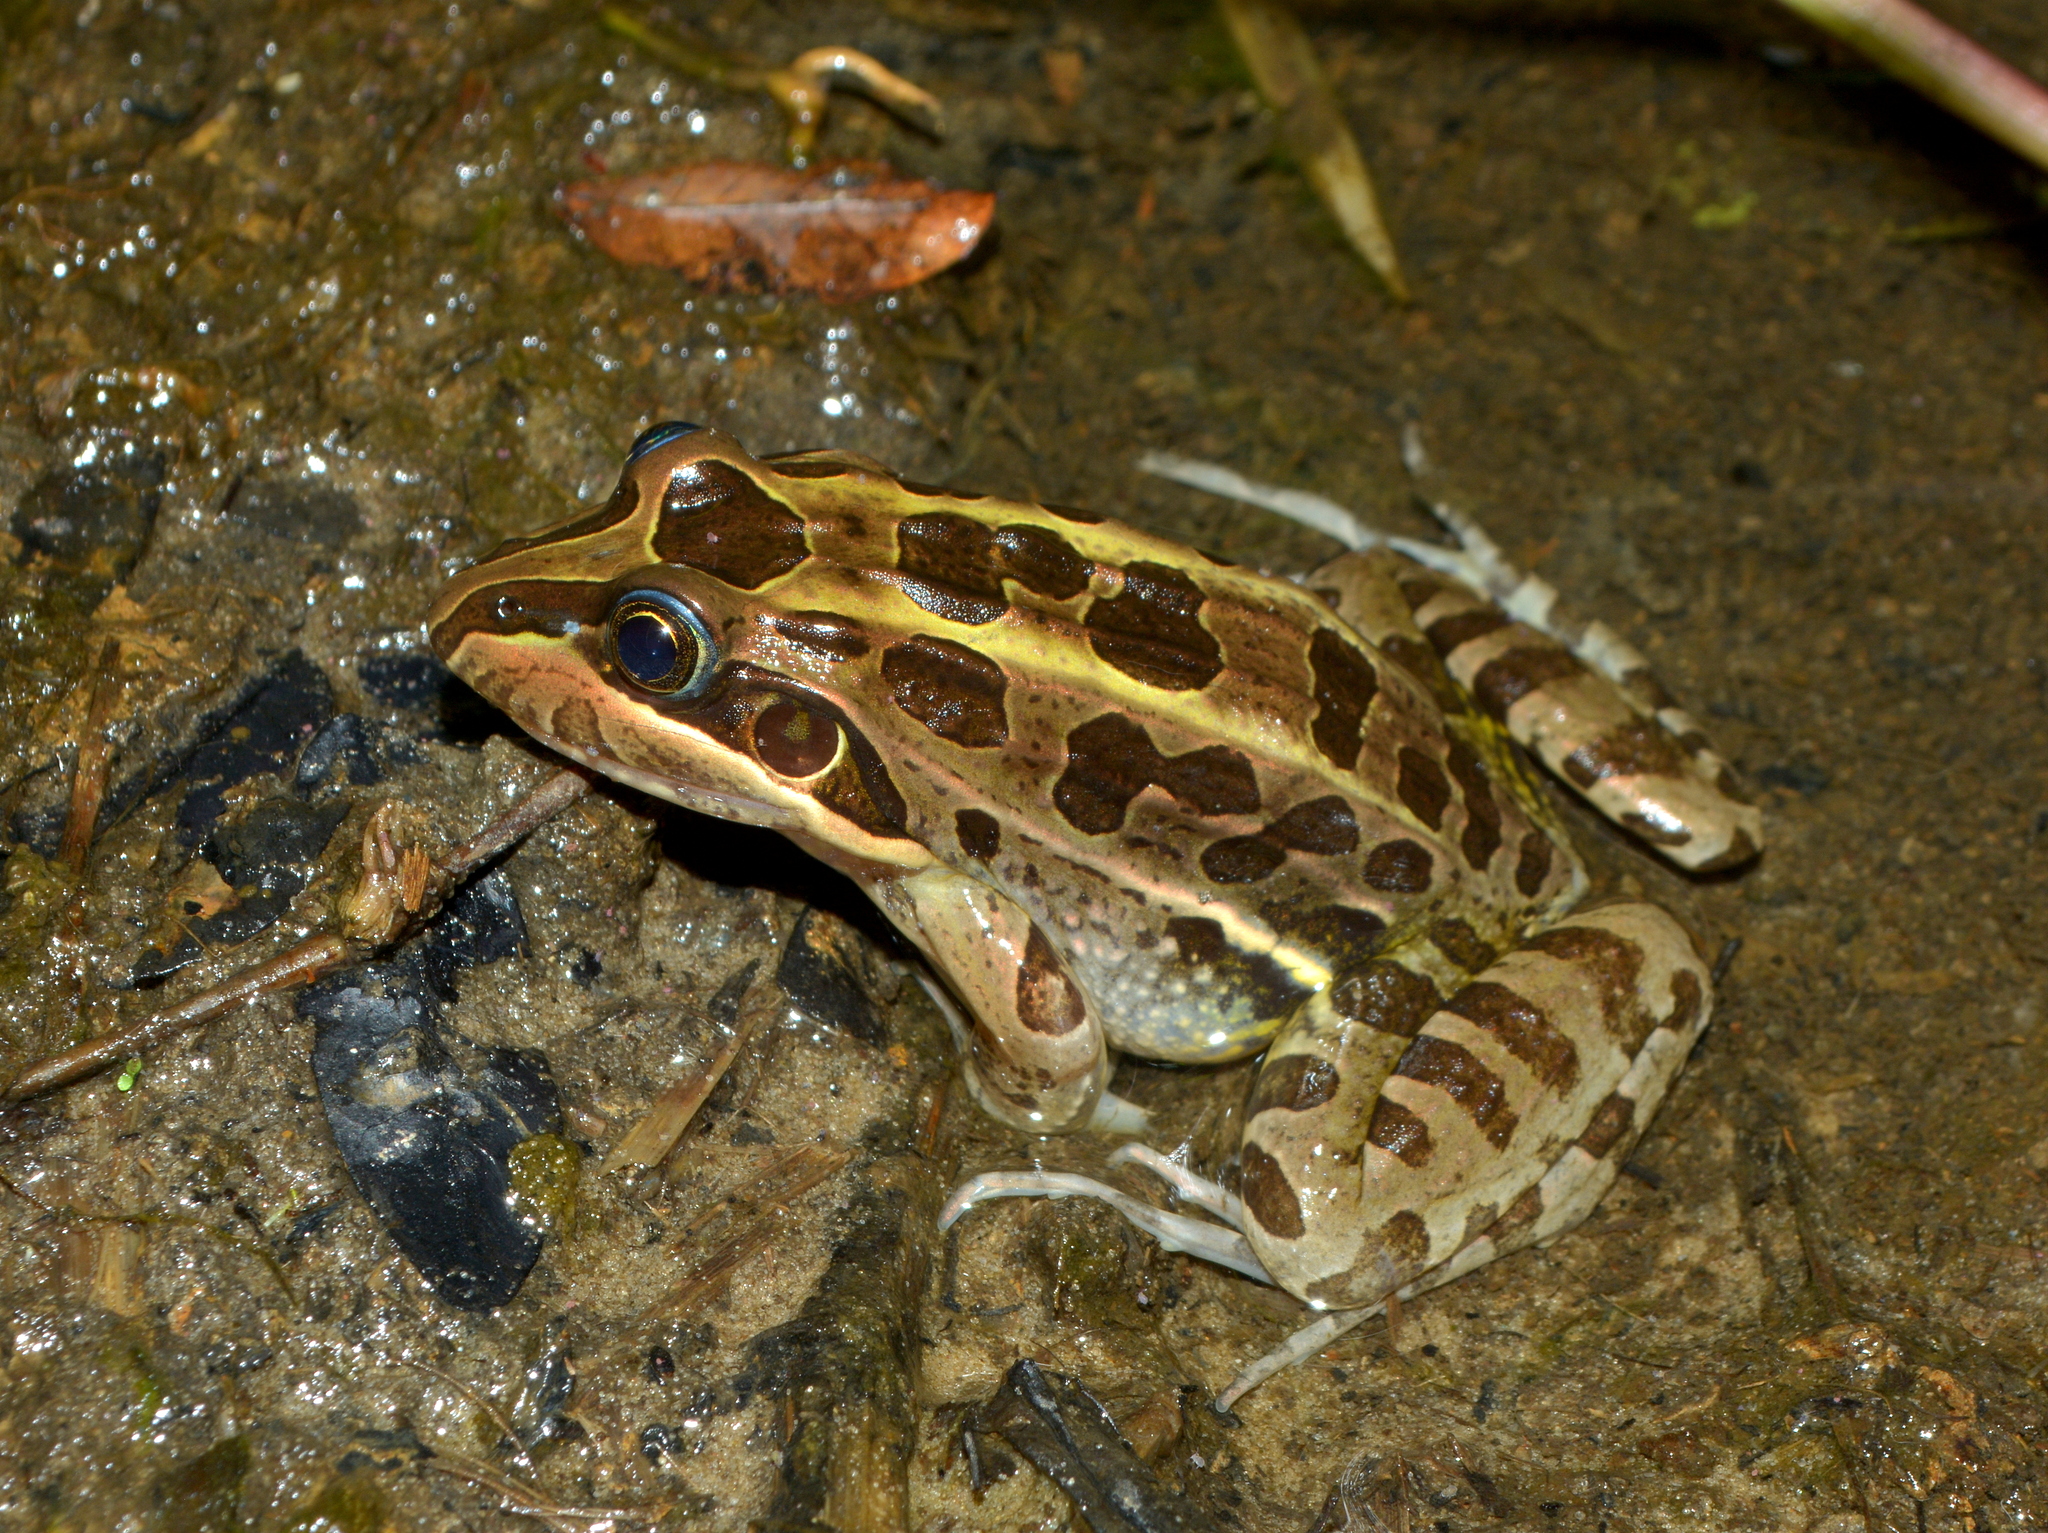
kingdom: Animalia
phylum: Chordata
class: Amphibia
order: Anura
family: Leptodactylidae
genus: Leptodactylus
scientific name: Leptodactylus luctator
